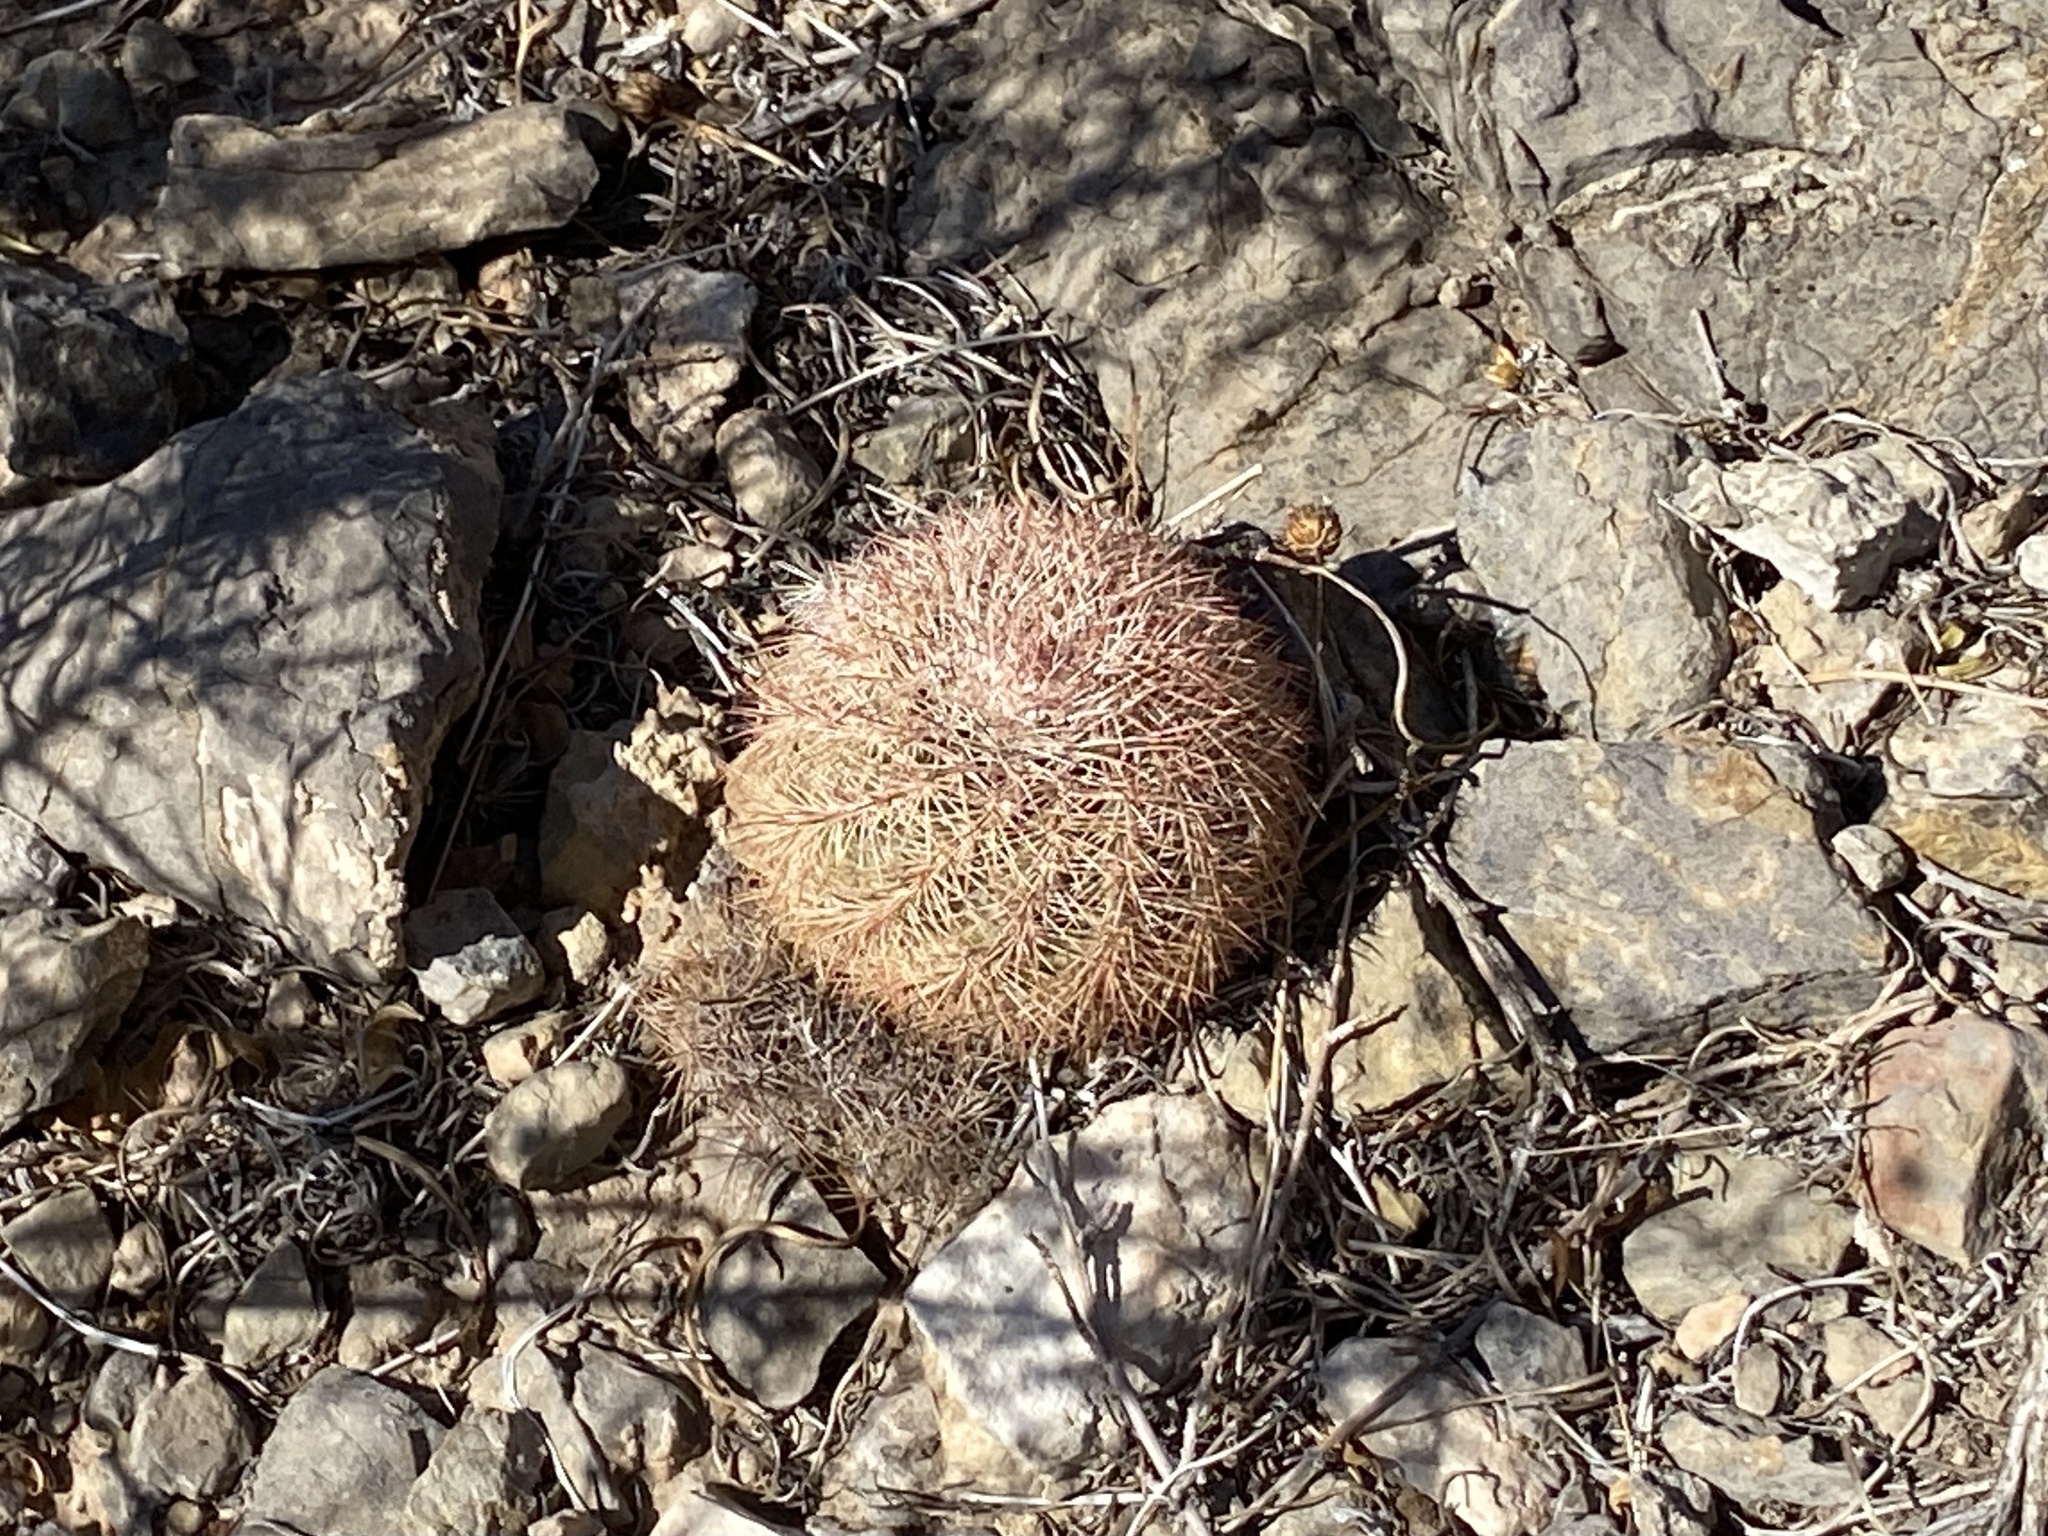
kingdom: Plantae
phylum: Tracheophyta
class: Magnoliopsida
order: Caryophyllales
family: Cactaceae
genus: Echinocereus
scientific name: Echinocereus dasyacanthus
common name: Spiny hedgehog cactus
